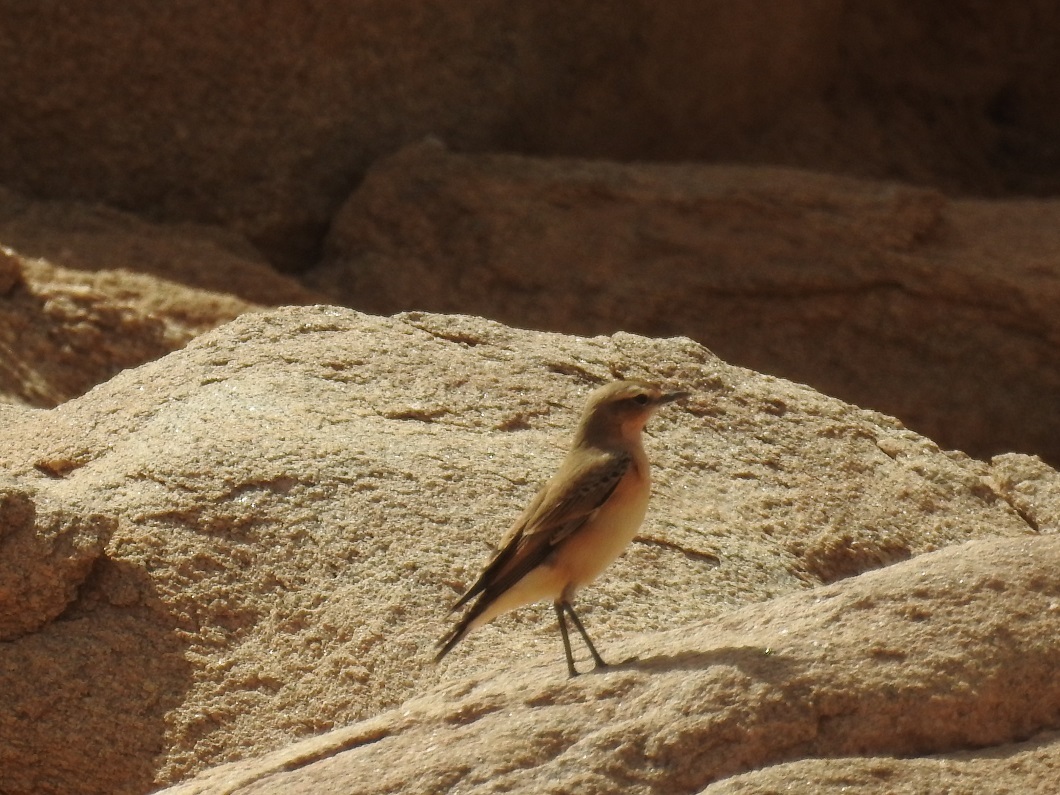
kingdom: Animalia
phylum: Chordata
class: Aves
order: Passeriformes
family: Muscicapidae
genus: Oenanthe
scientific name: Oenanthe oenanthe
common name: Northern wheatear
